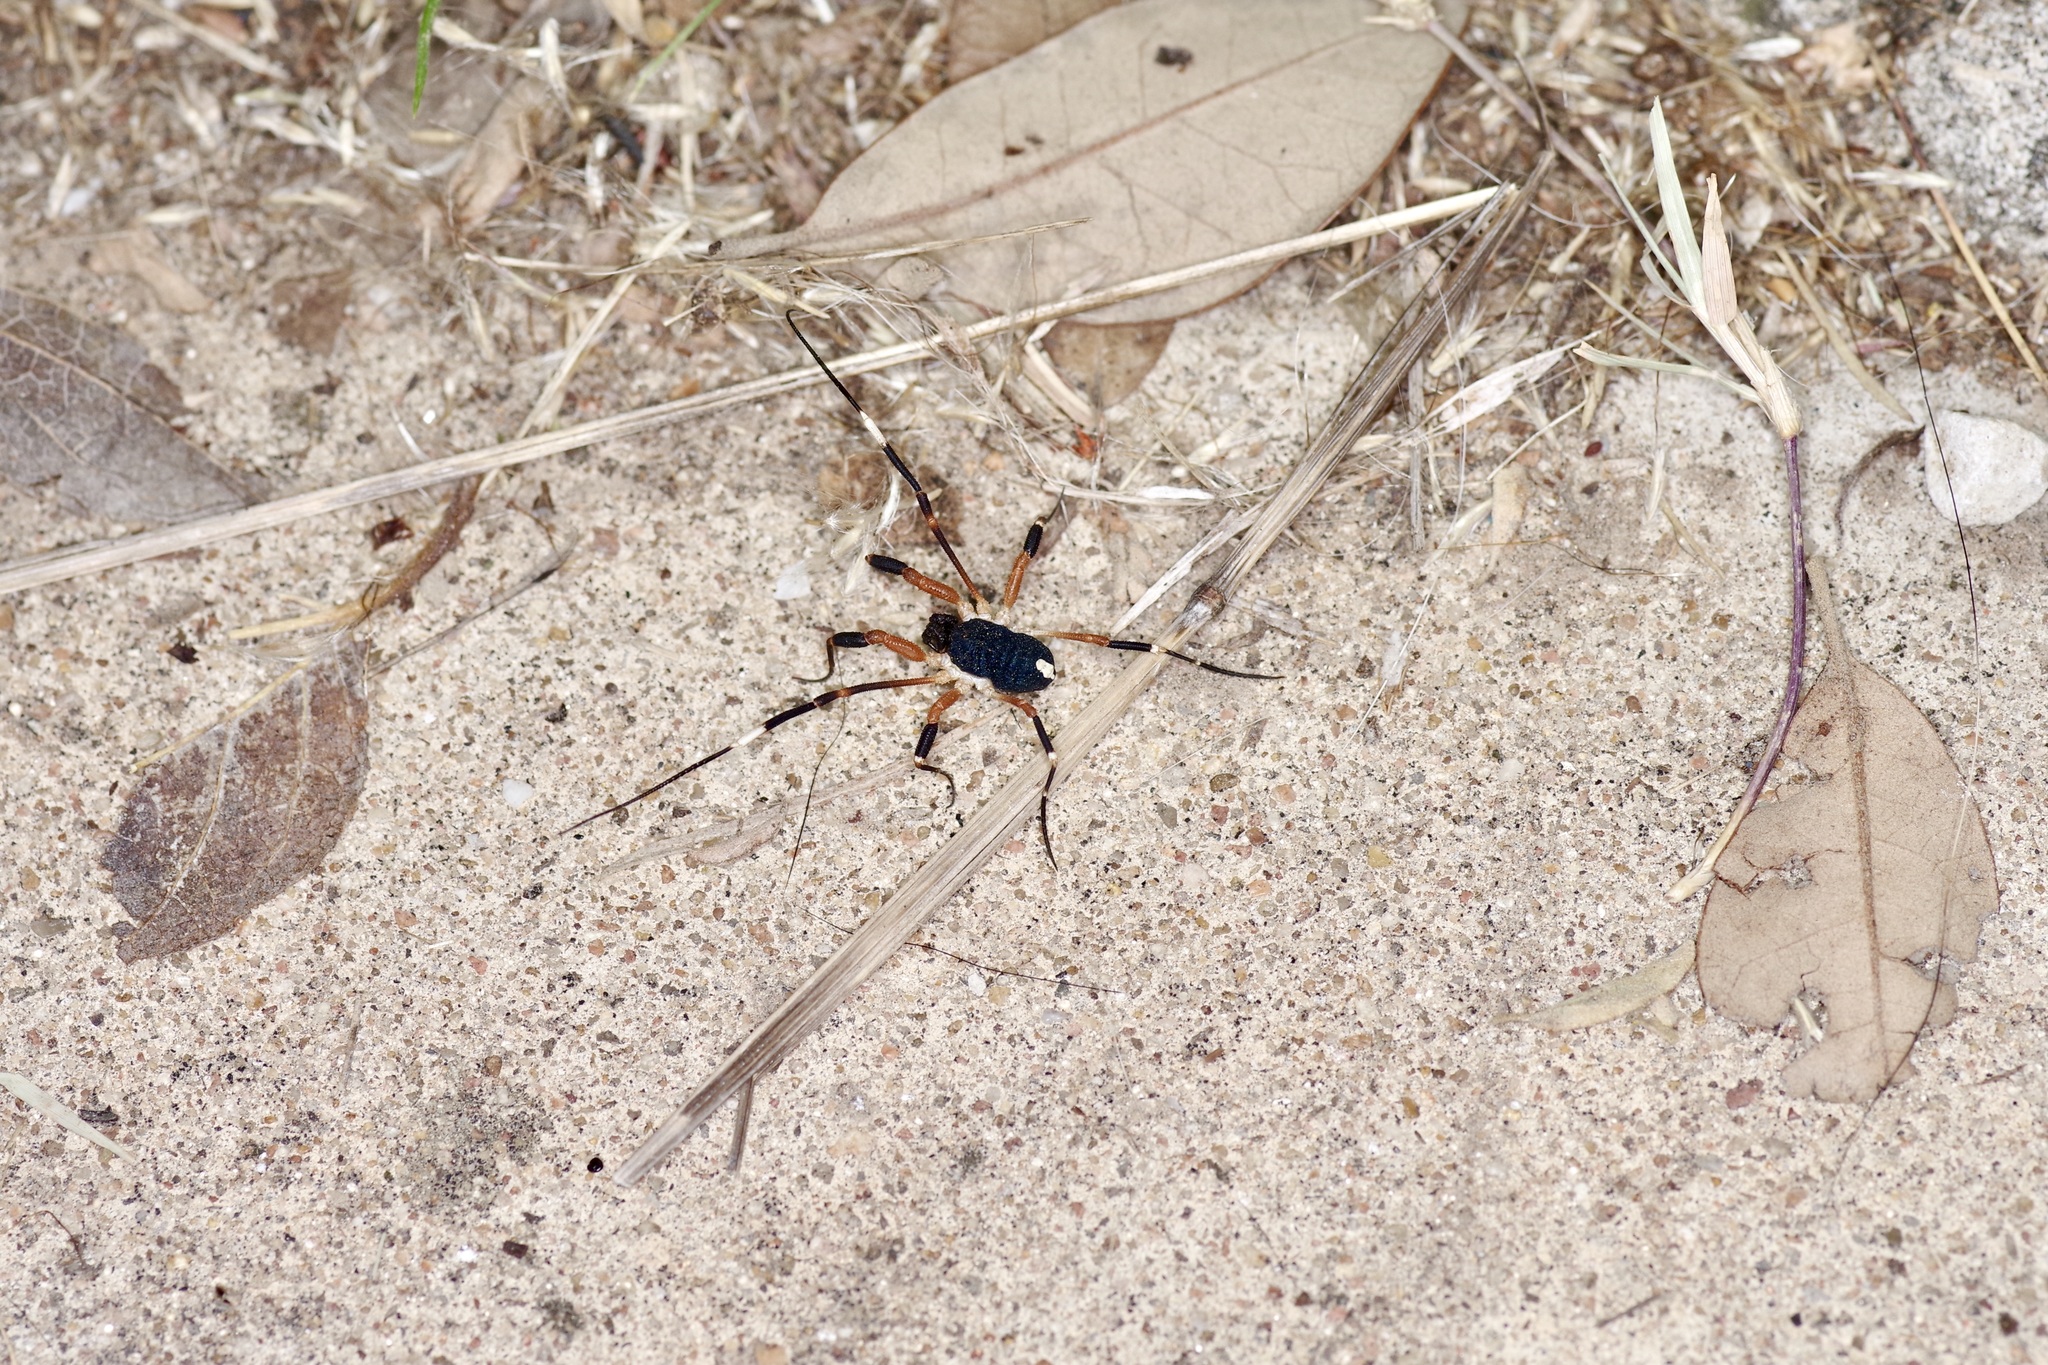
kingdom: Animalia
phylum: Arthropoda
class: Arachnida
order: Opiliones
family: Globipedidae
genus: Dalquestia
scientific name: Dalquestia formosa
